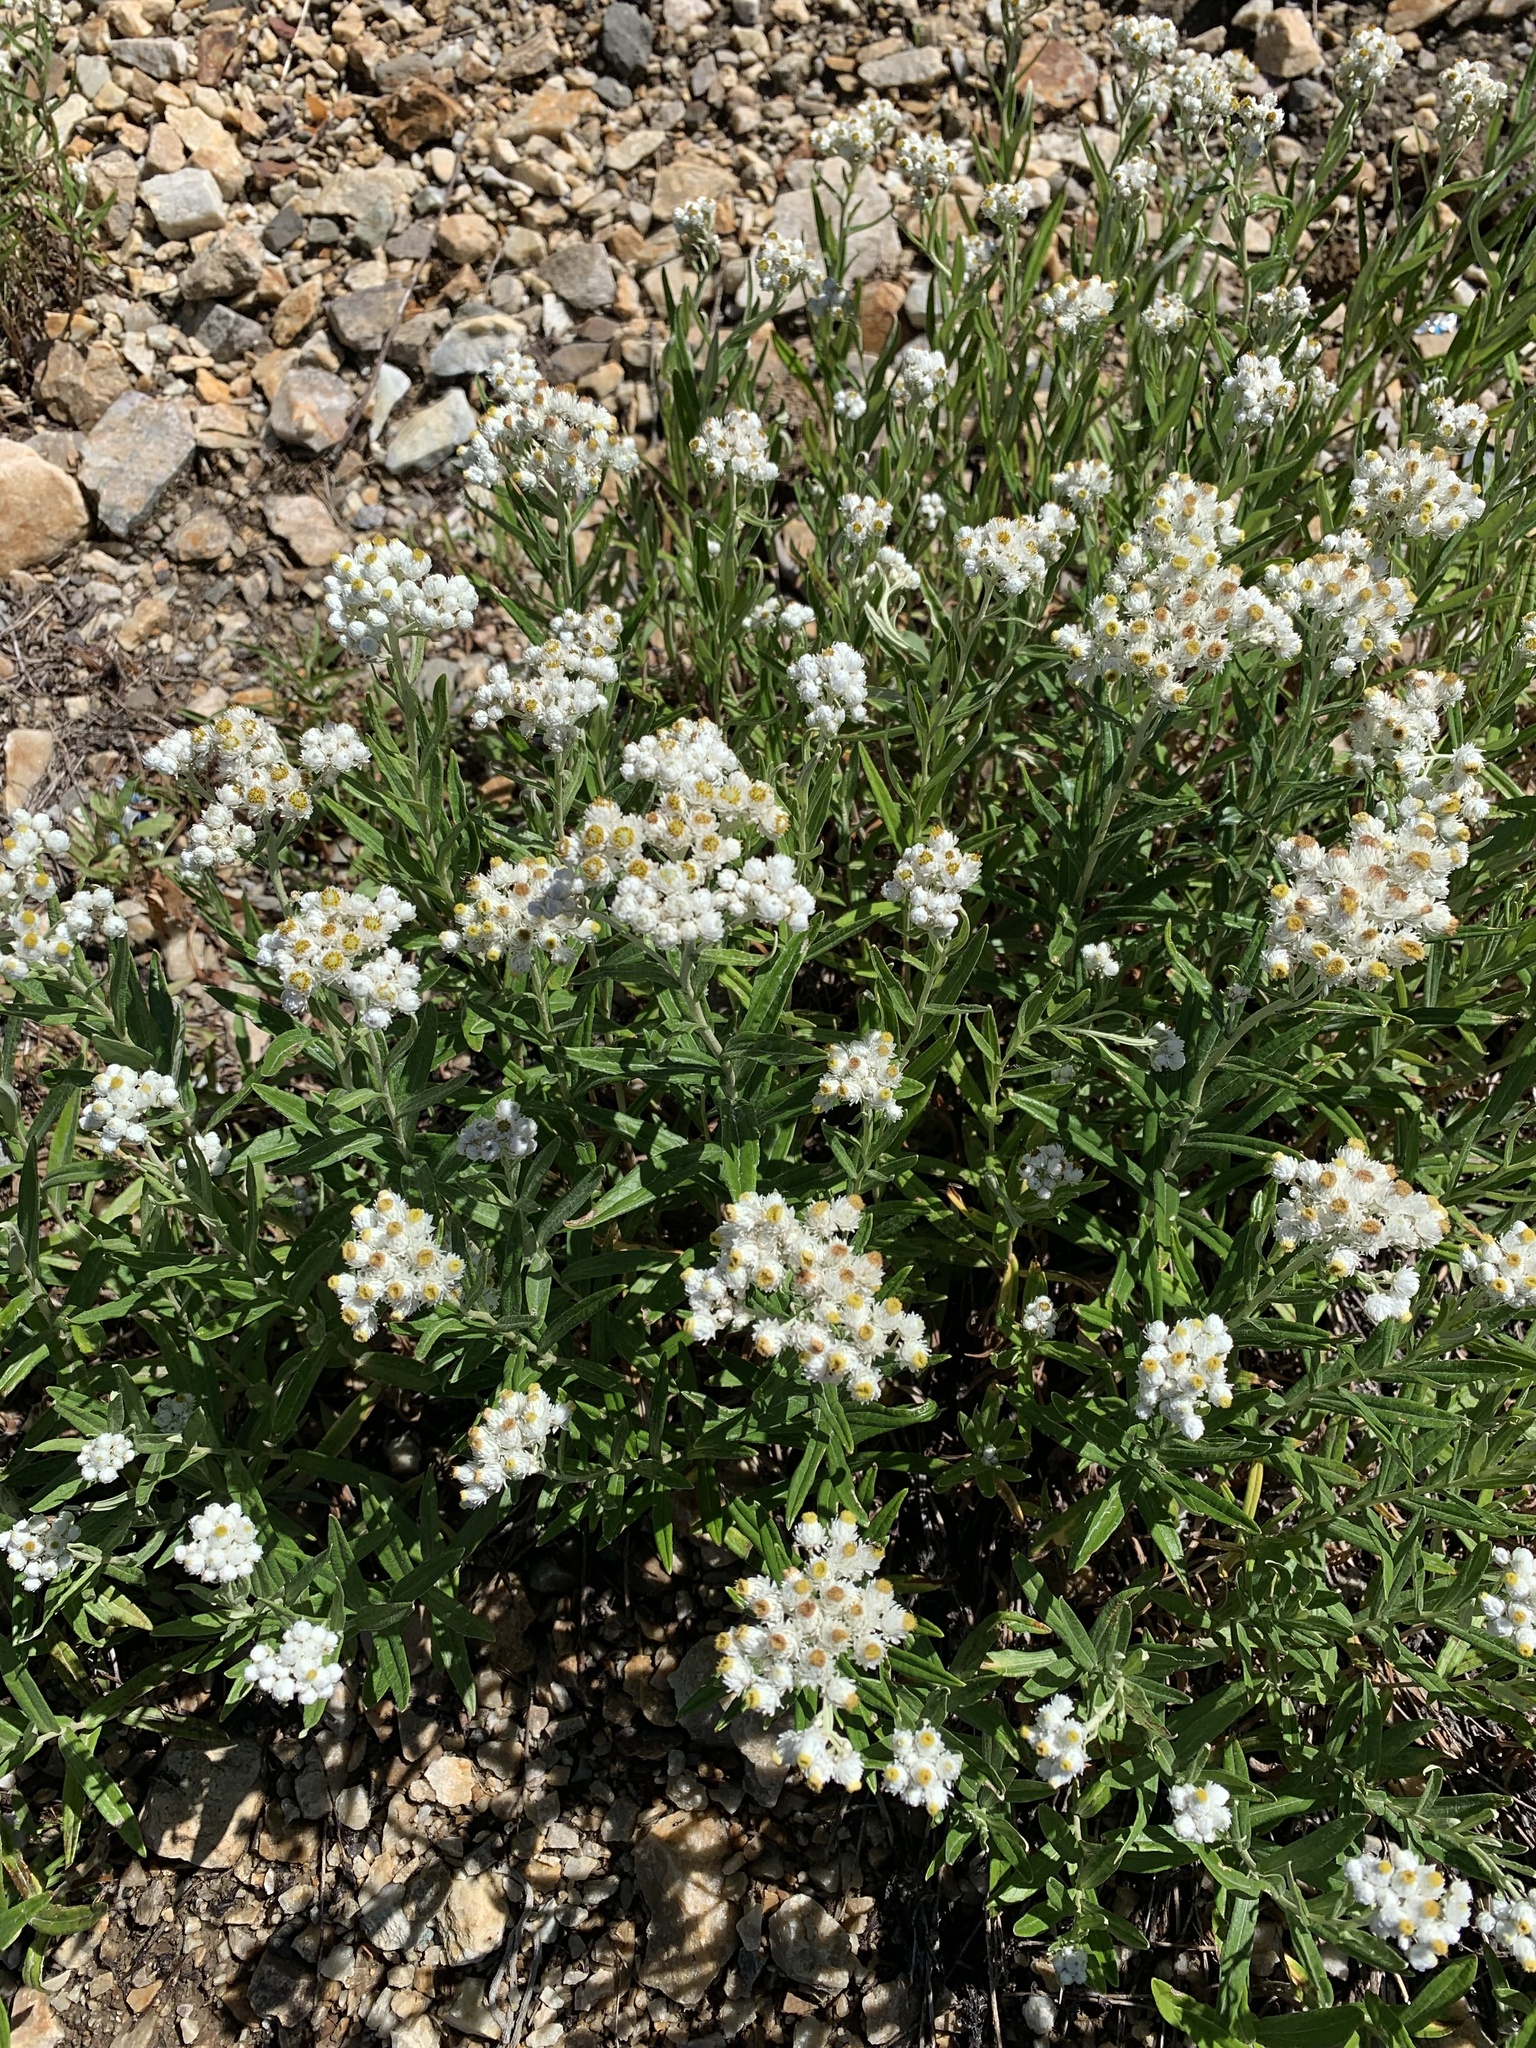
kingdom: Plantae
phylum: Tracheophyta
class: Magnoliopsida
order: Asterales
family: Asteraceae
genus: Anaphalis
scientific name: Anaphalis margaritacea
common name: Pearly everlasting
